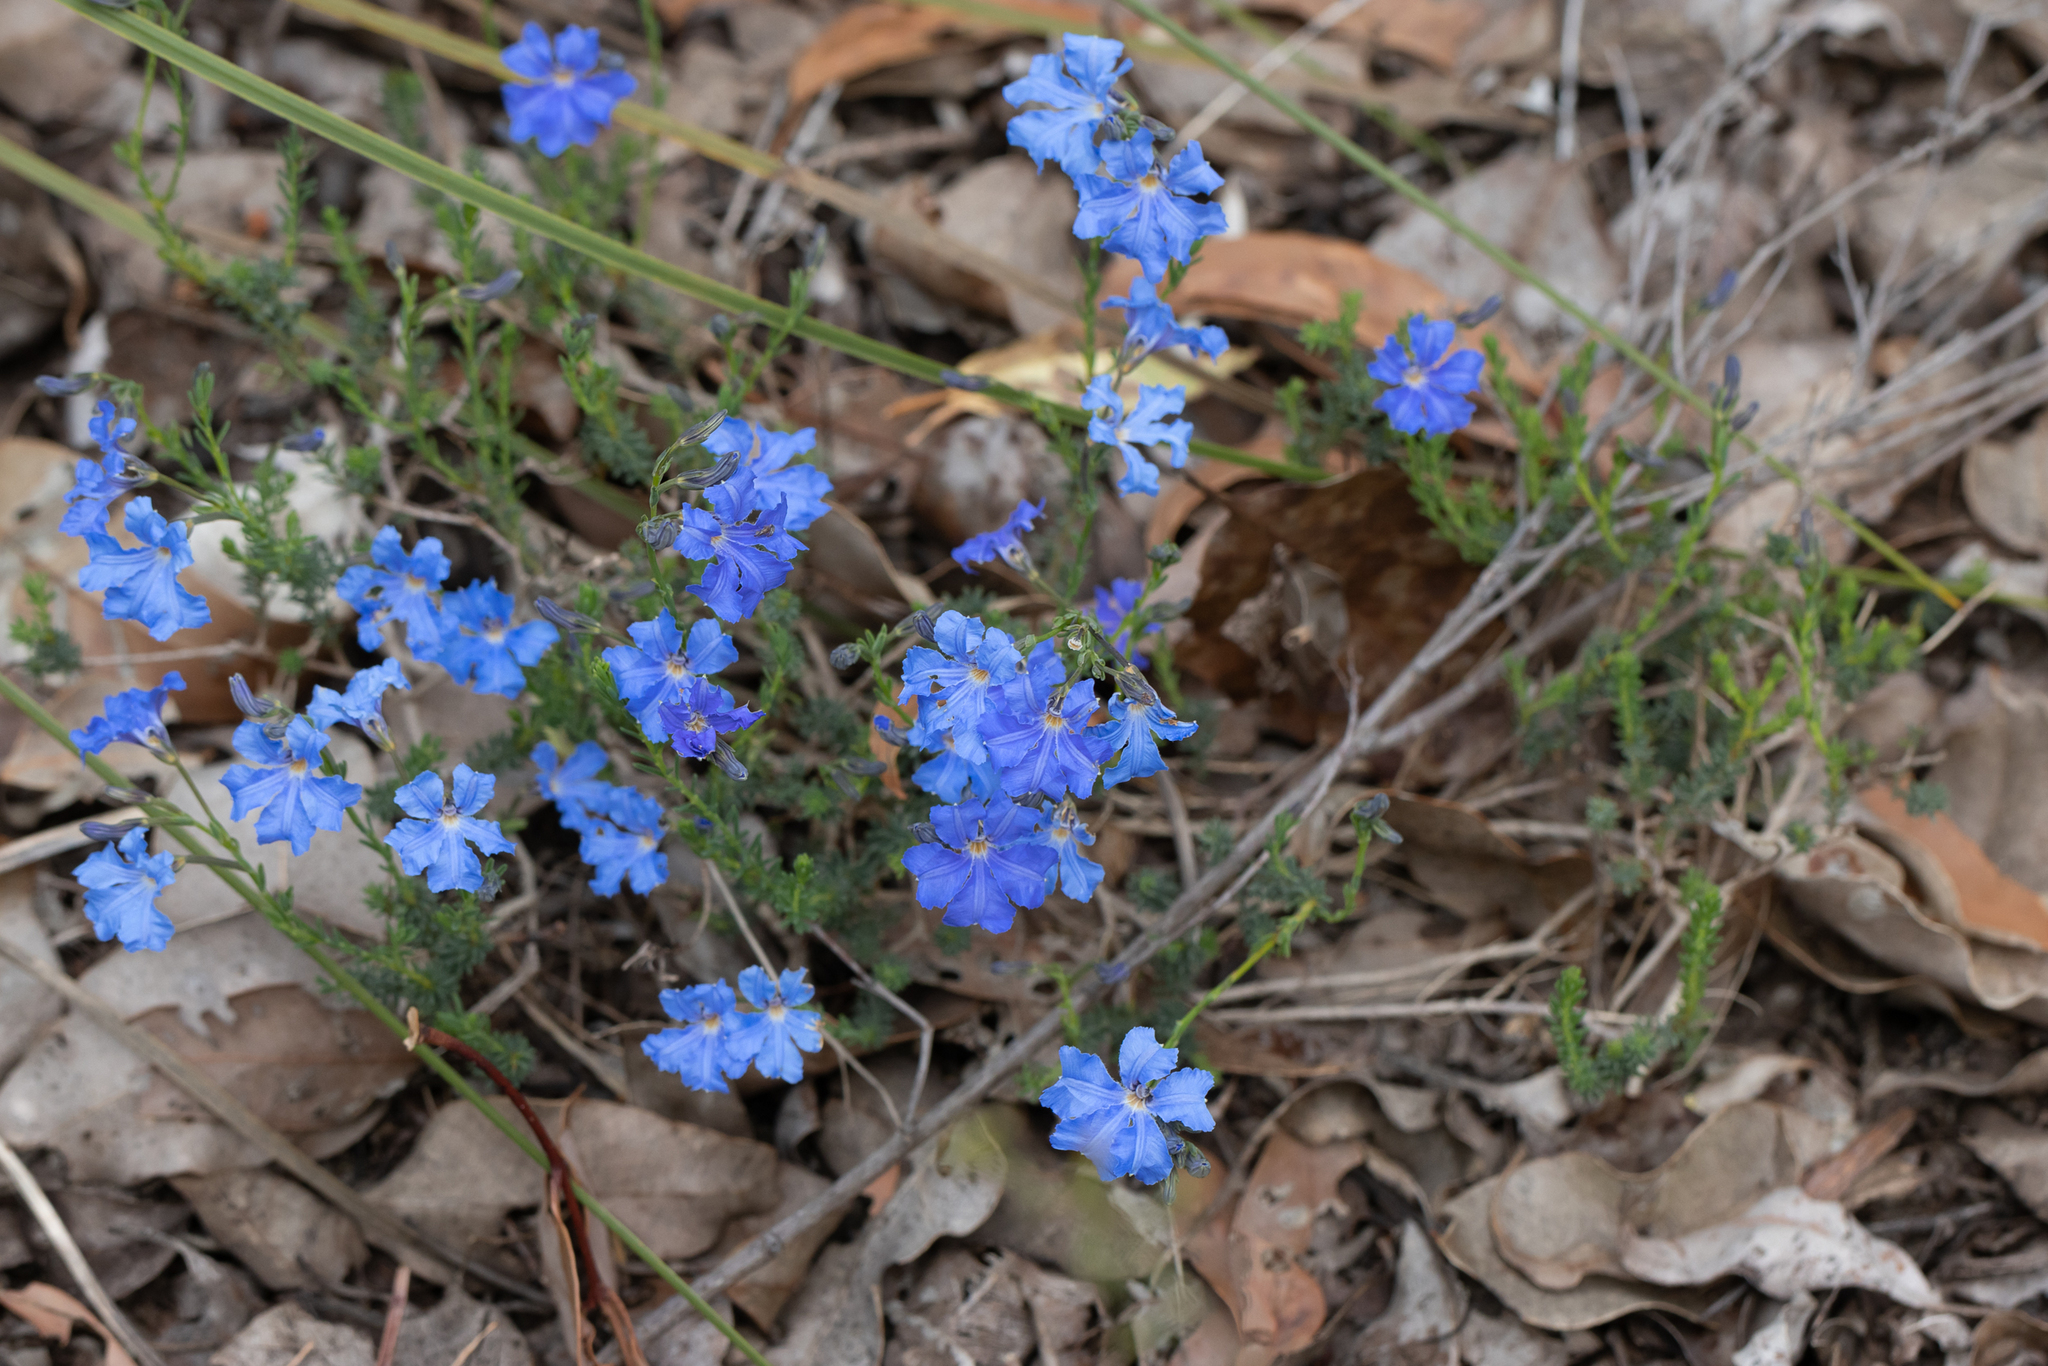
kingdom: Plantae
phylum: Tracheophyta
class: Magnoliopsida
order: Asterales
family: Goodeniaceae
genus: Lechenaultia
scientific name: Lechenaultia biloba
